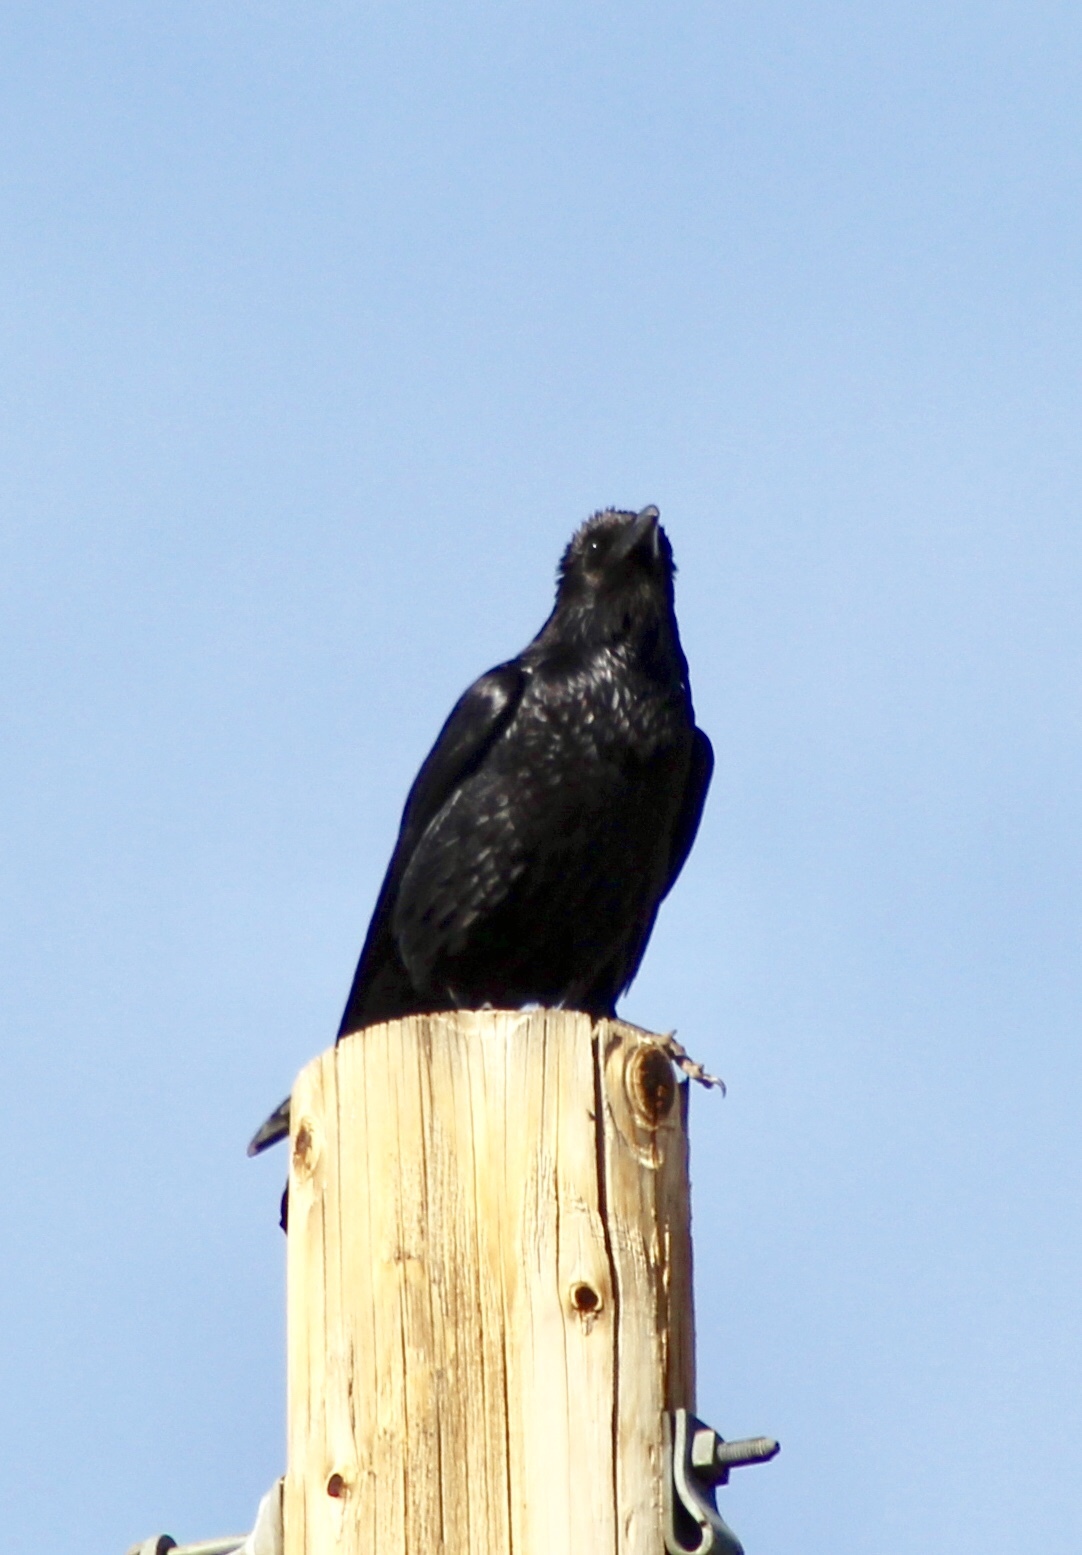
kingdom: Animalia
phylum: Chordata
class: Aves
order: Passeriformes
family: Corvidae
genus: Corvus
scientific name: Corvus corax
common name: Common raven
